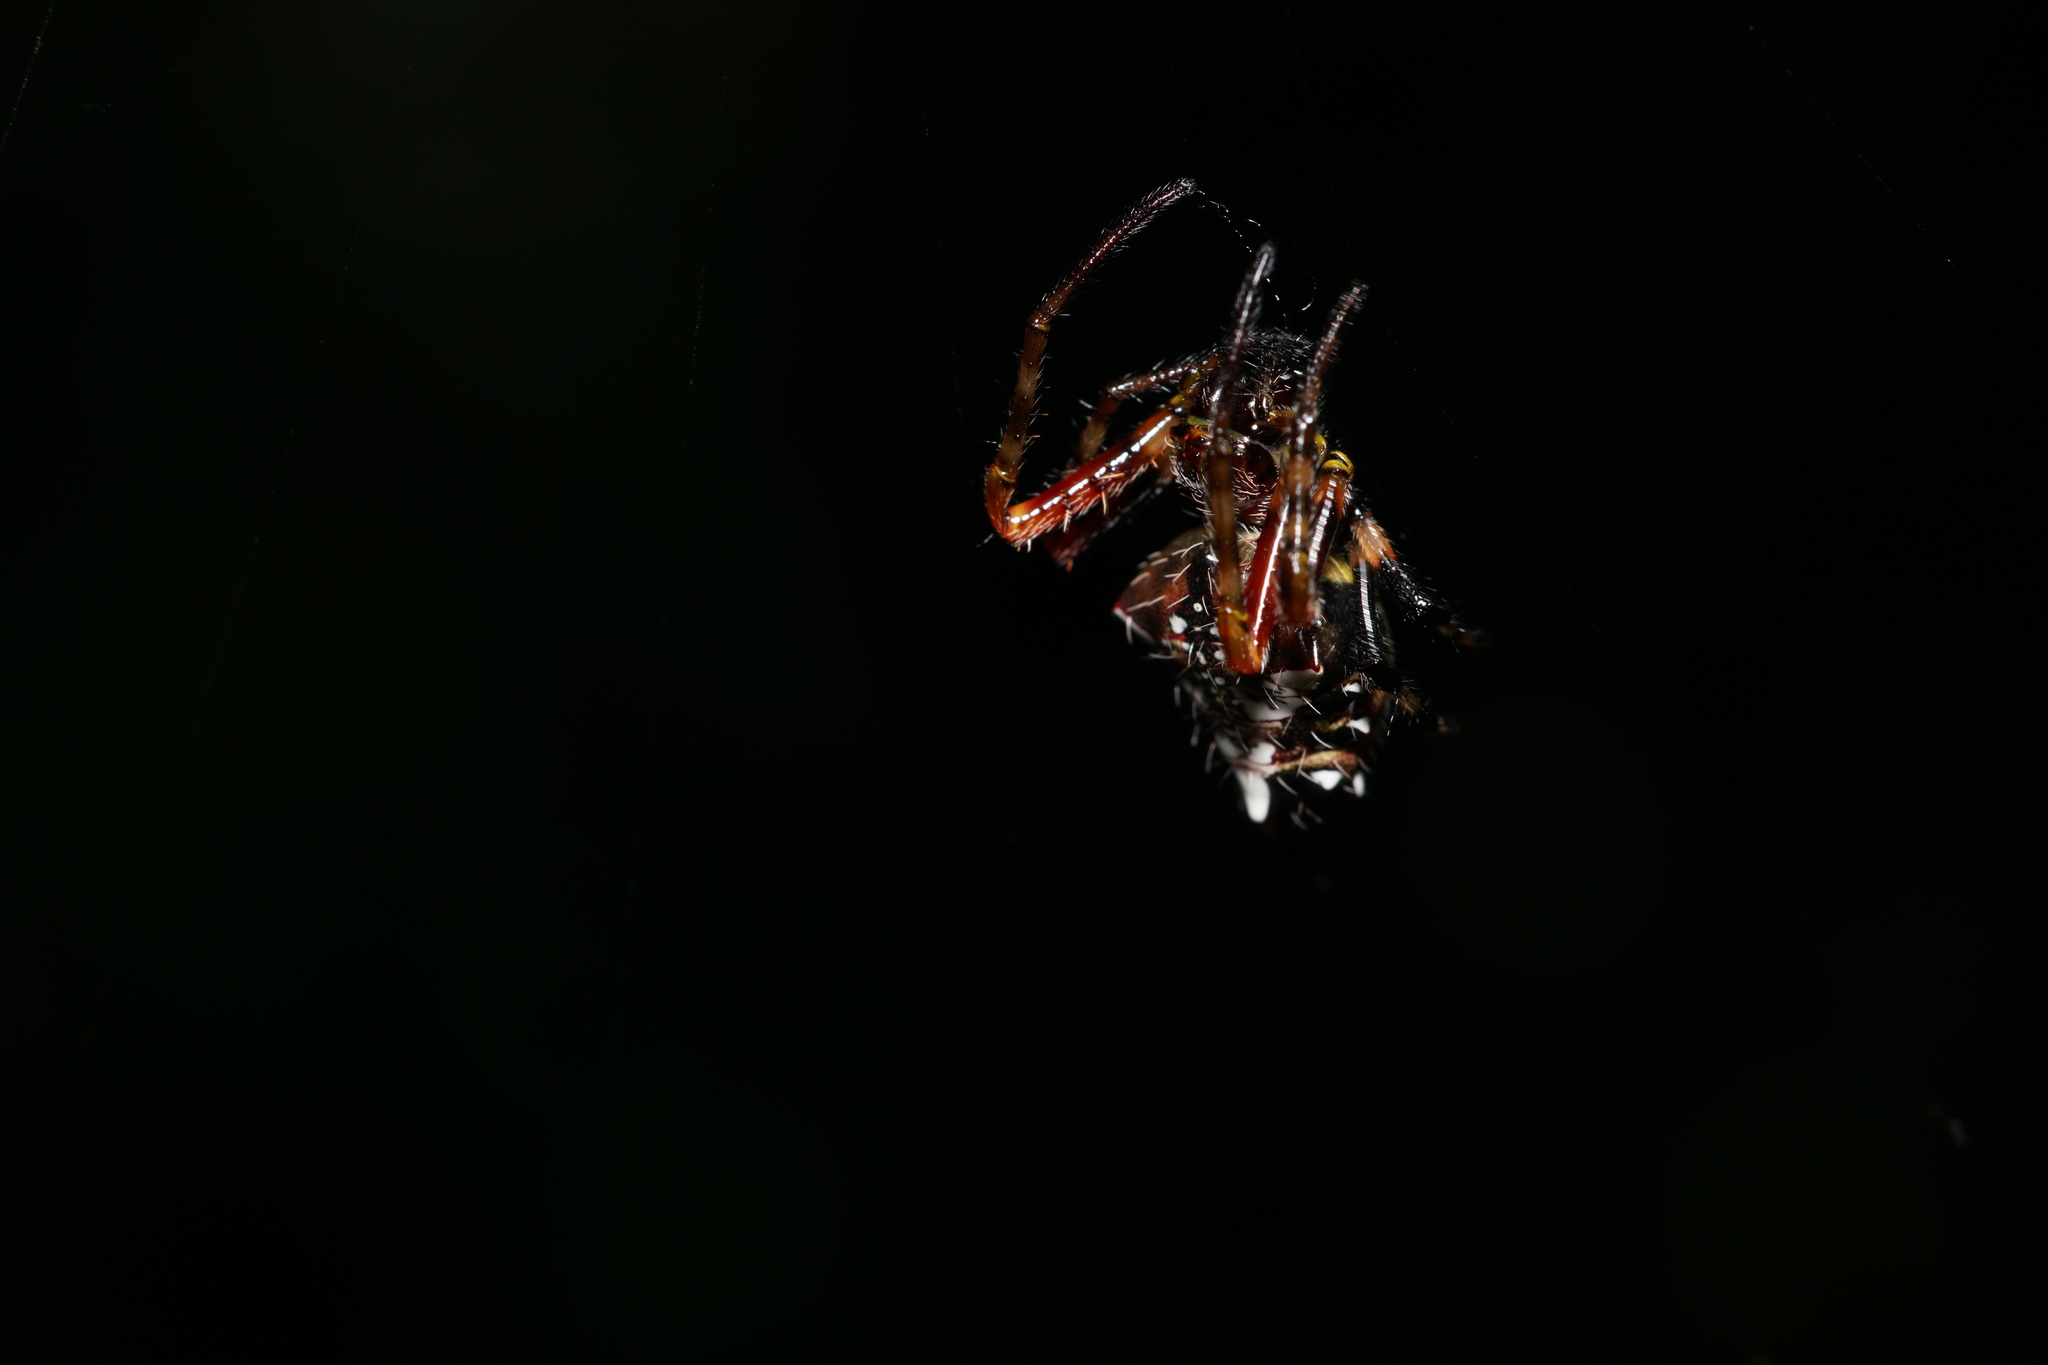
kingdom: Animalia
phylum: Arthropoda
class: Arachnida
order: Araneae
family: Araneidae
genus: Verrucosa
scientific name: Verrucosa meridionalis
